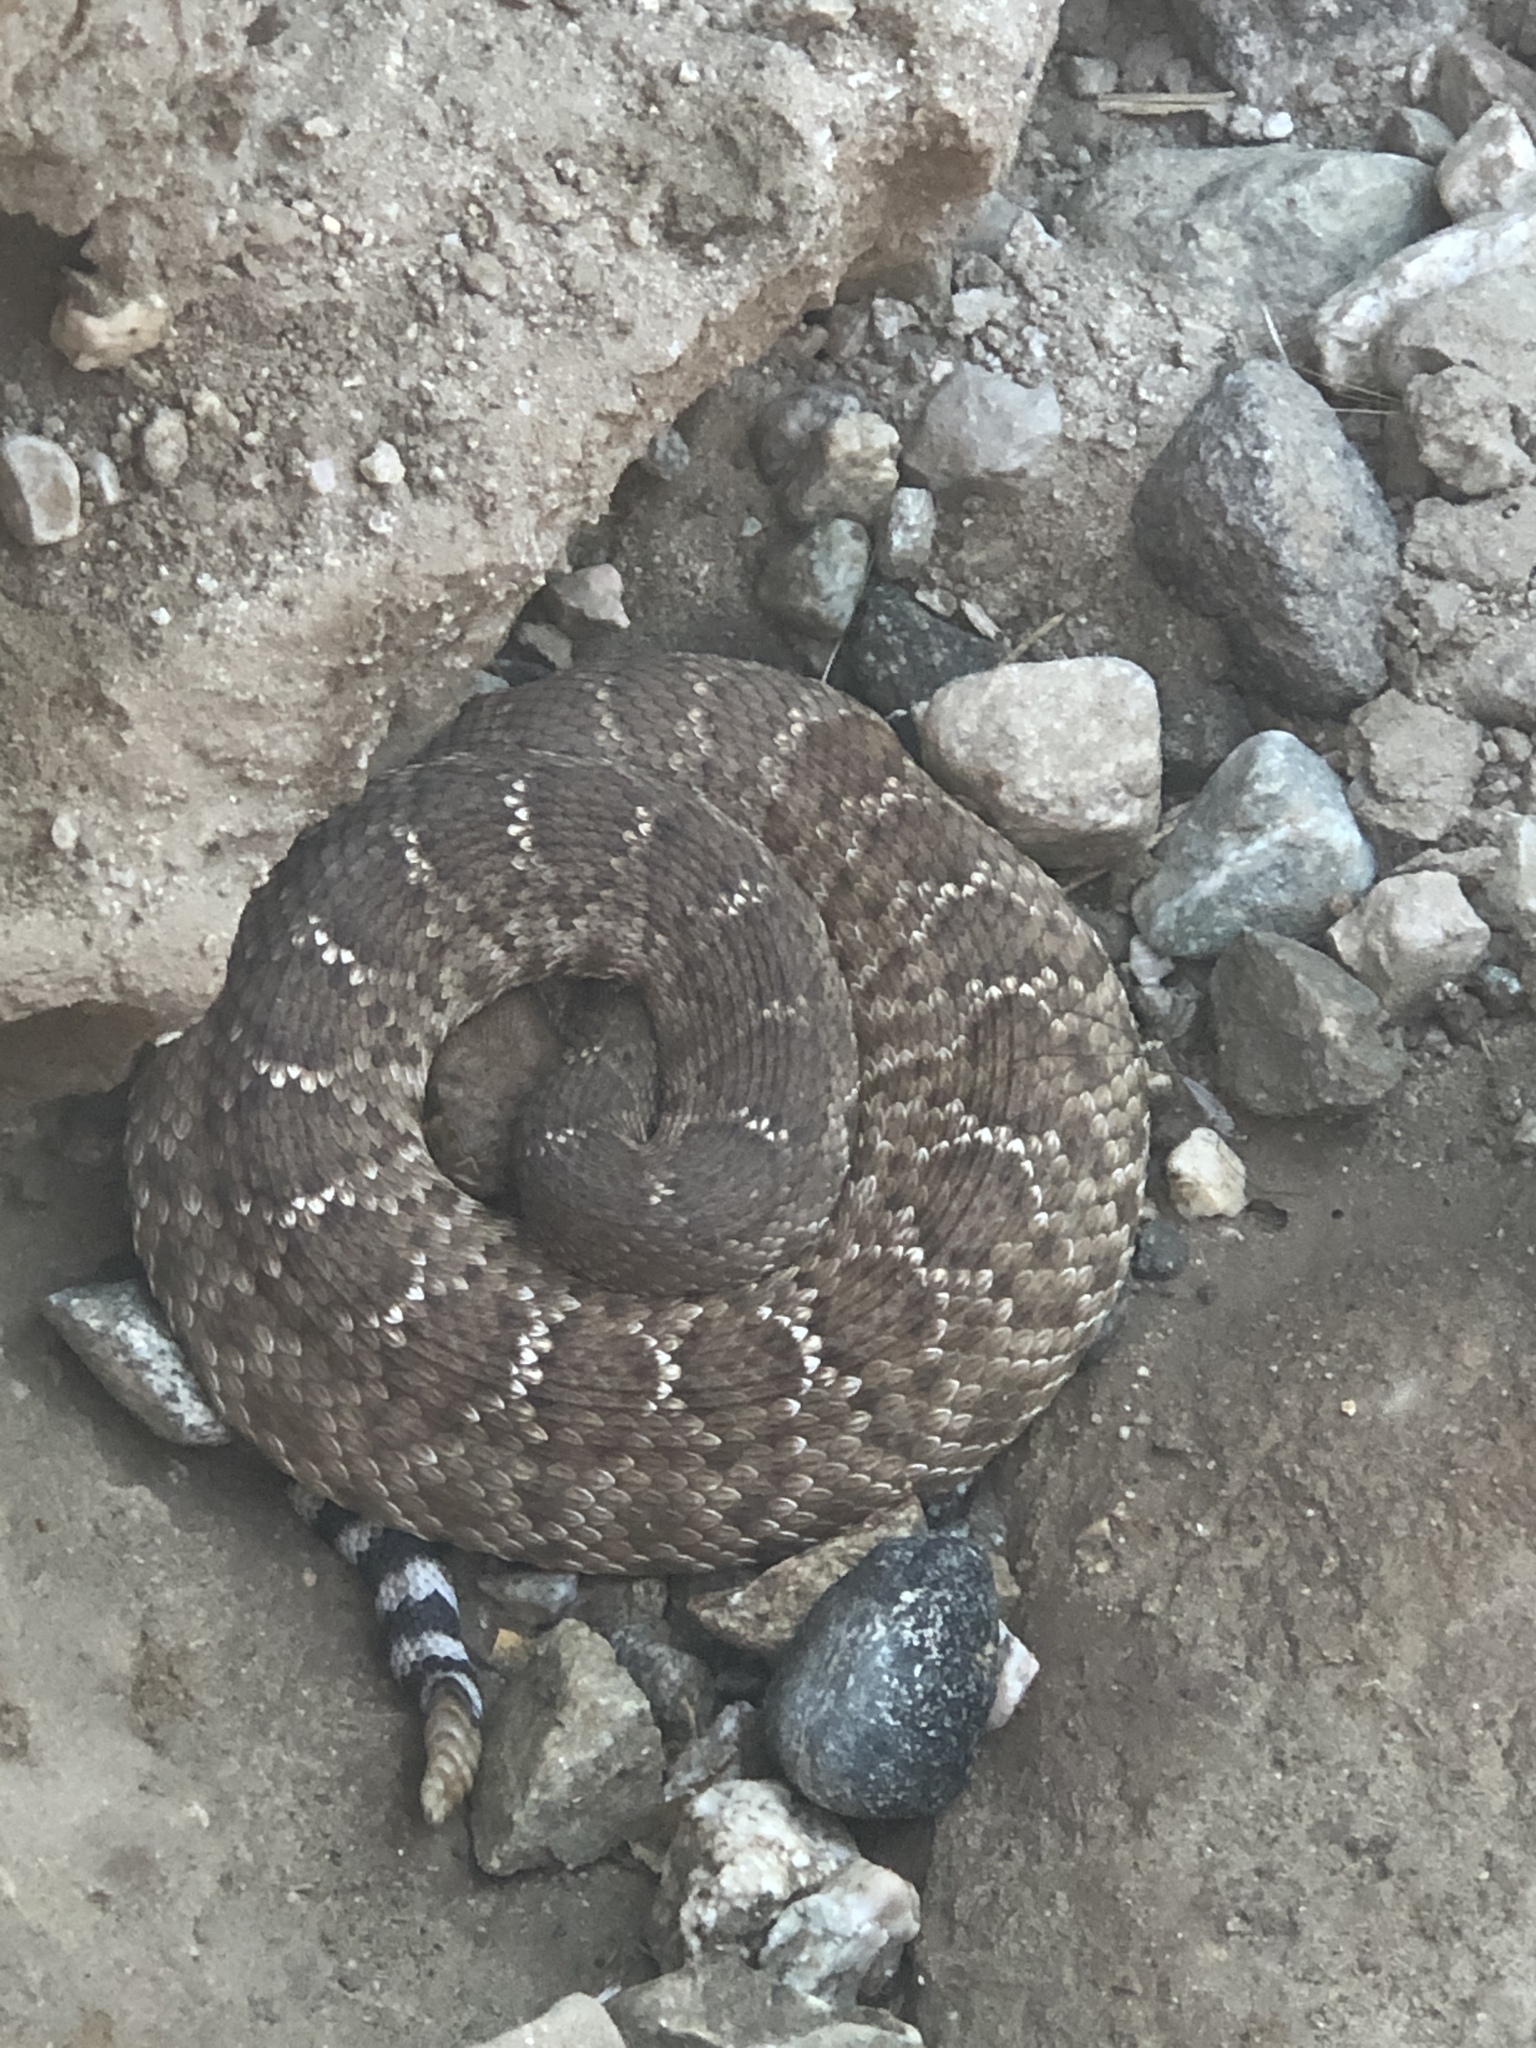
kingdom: Animalia
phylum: Chordata
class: Squamata
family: Viperidae
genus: Crotalus
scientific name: Crotalus ruber
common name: Red diamond rattlesnake
